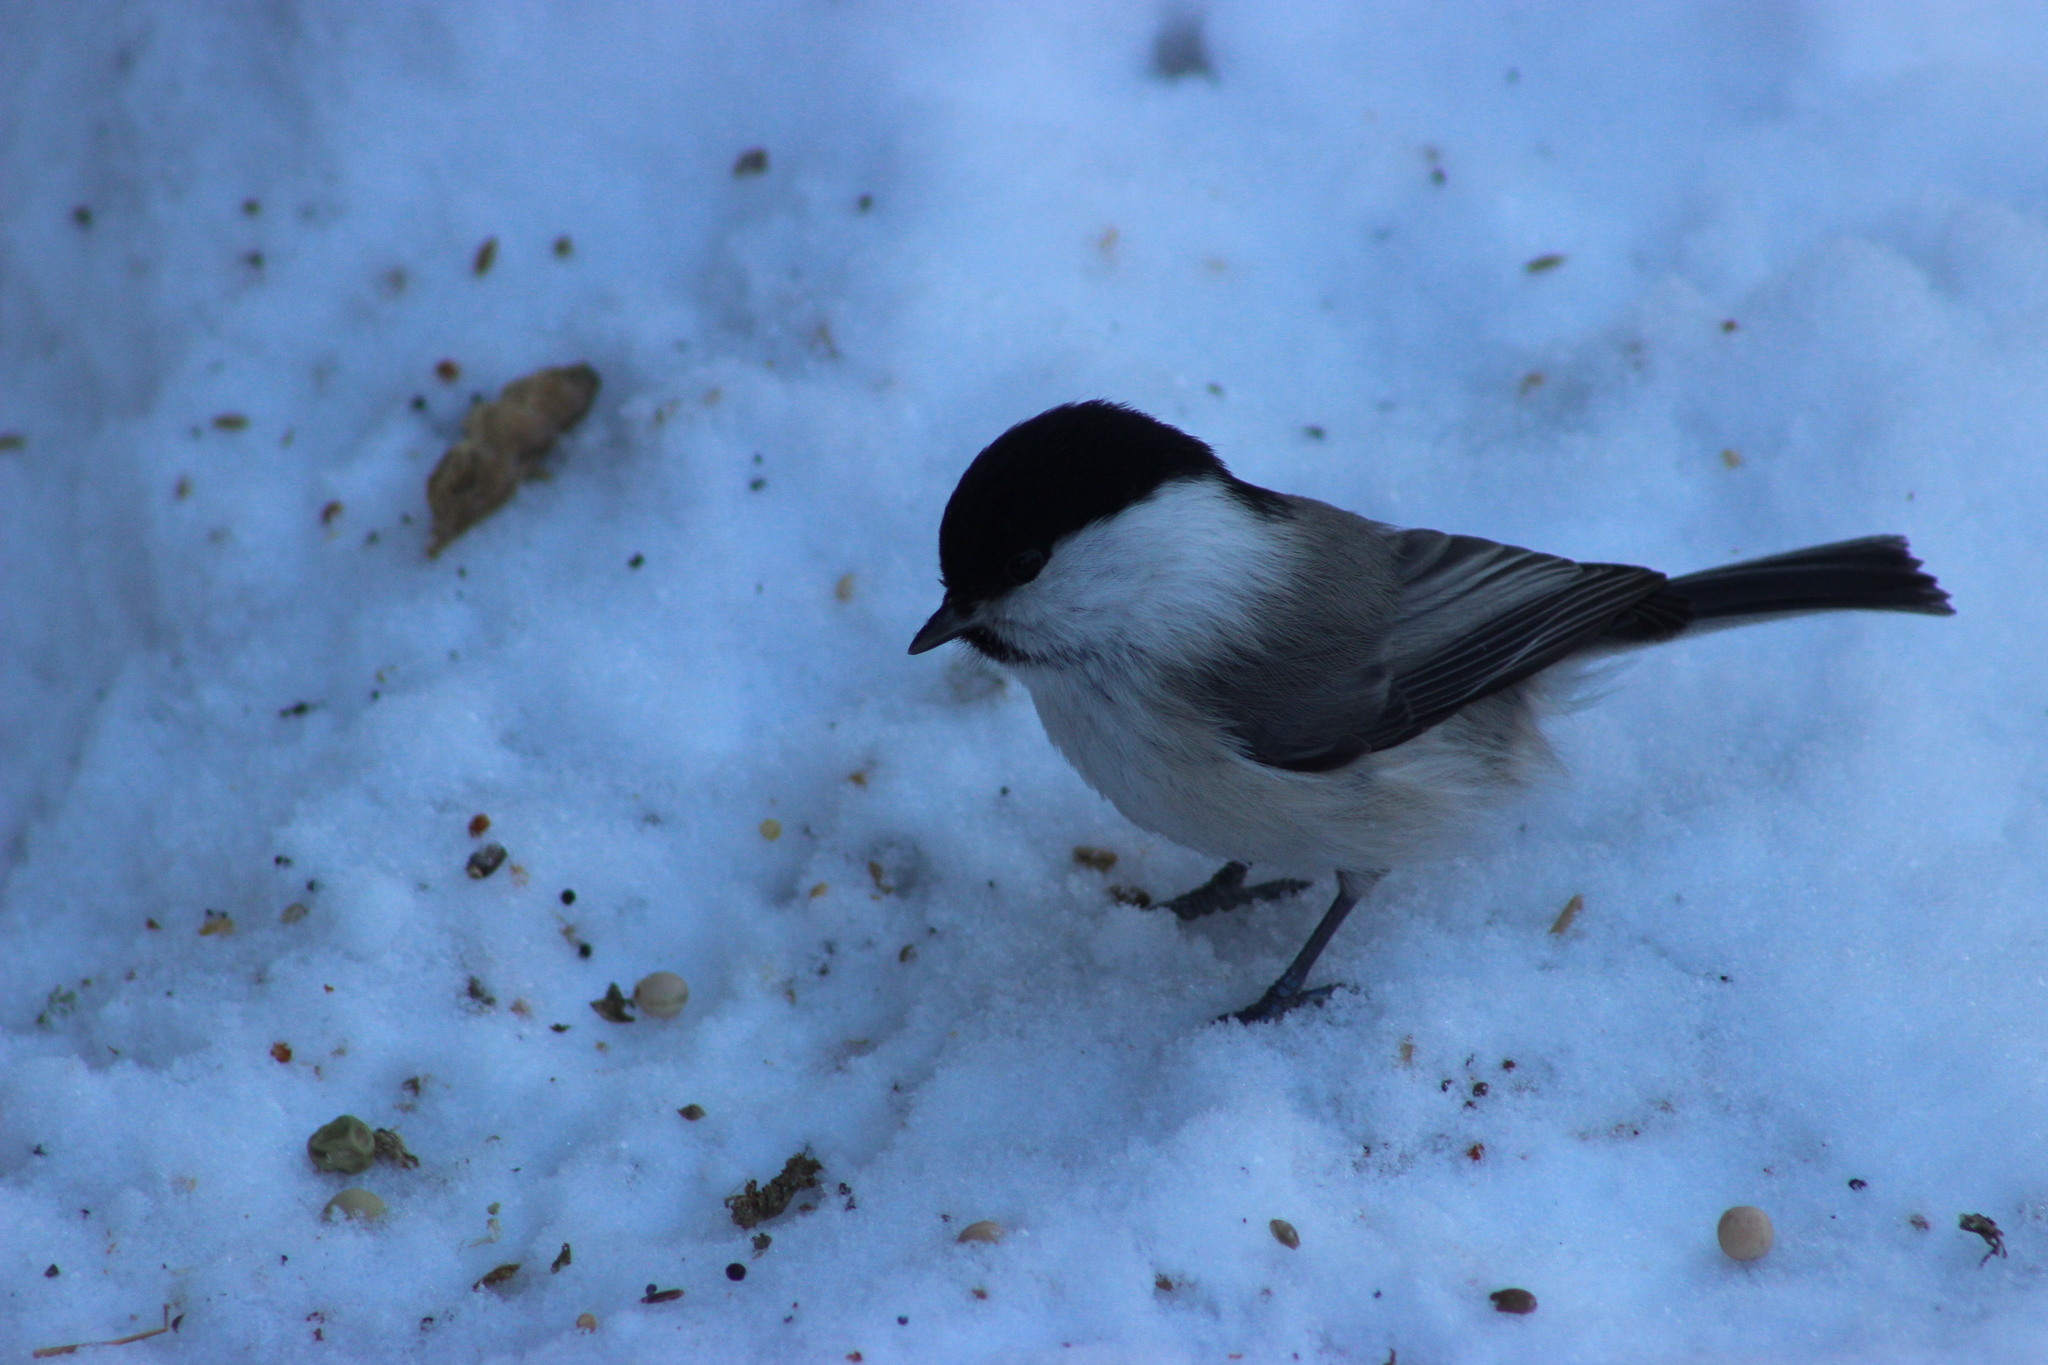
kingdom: Animalia
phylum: Chordata
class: Aves
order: Passeriformes
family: Paridae
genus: Poecile
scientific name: Poecile montanus
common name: Willow tit
